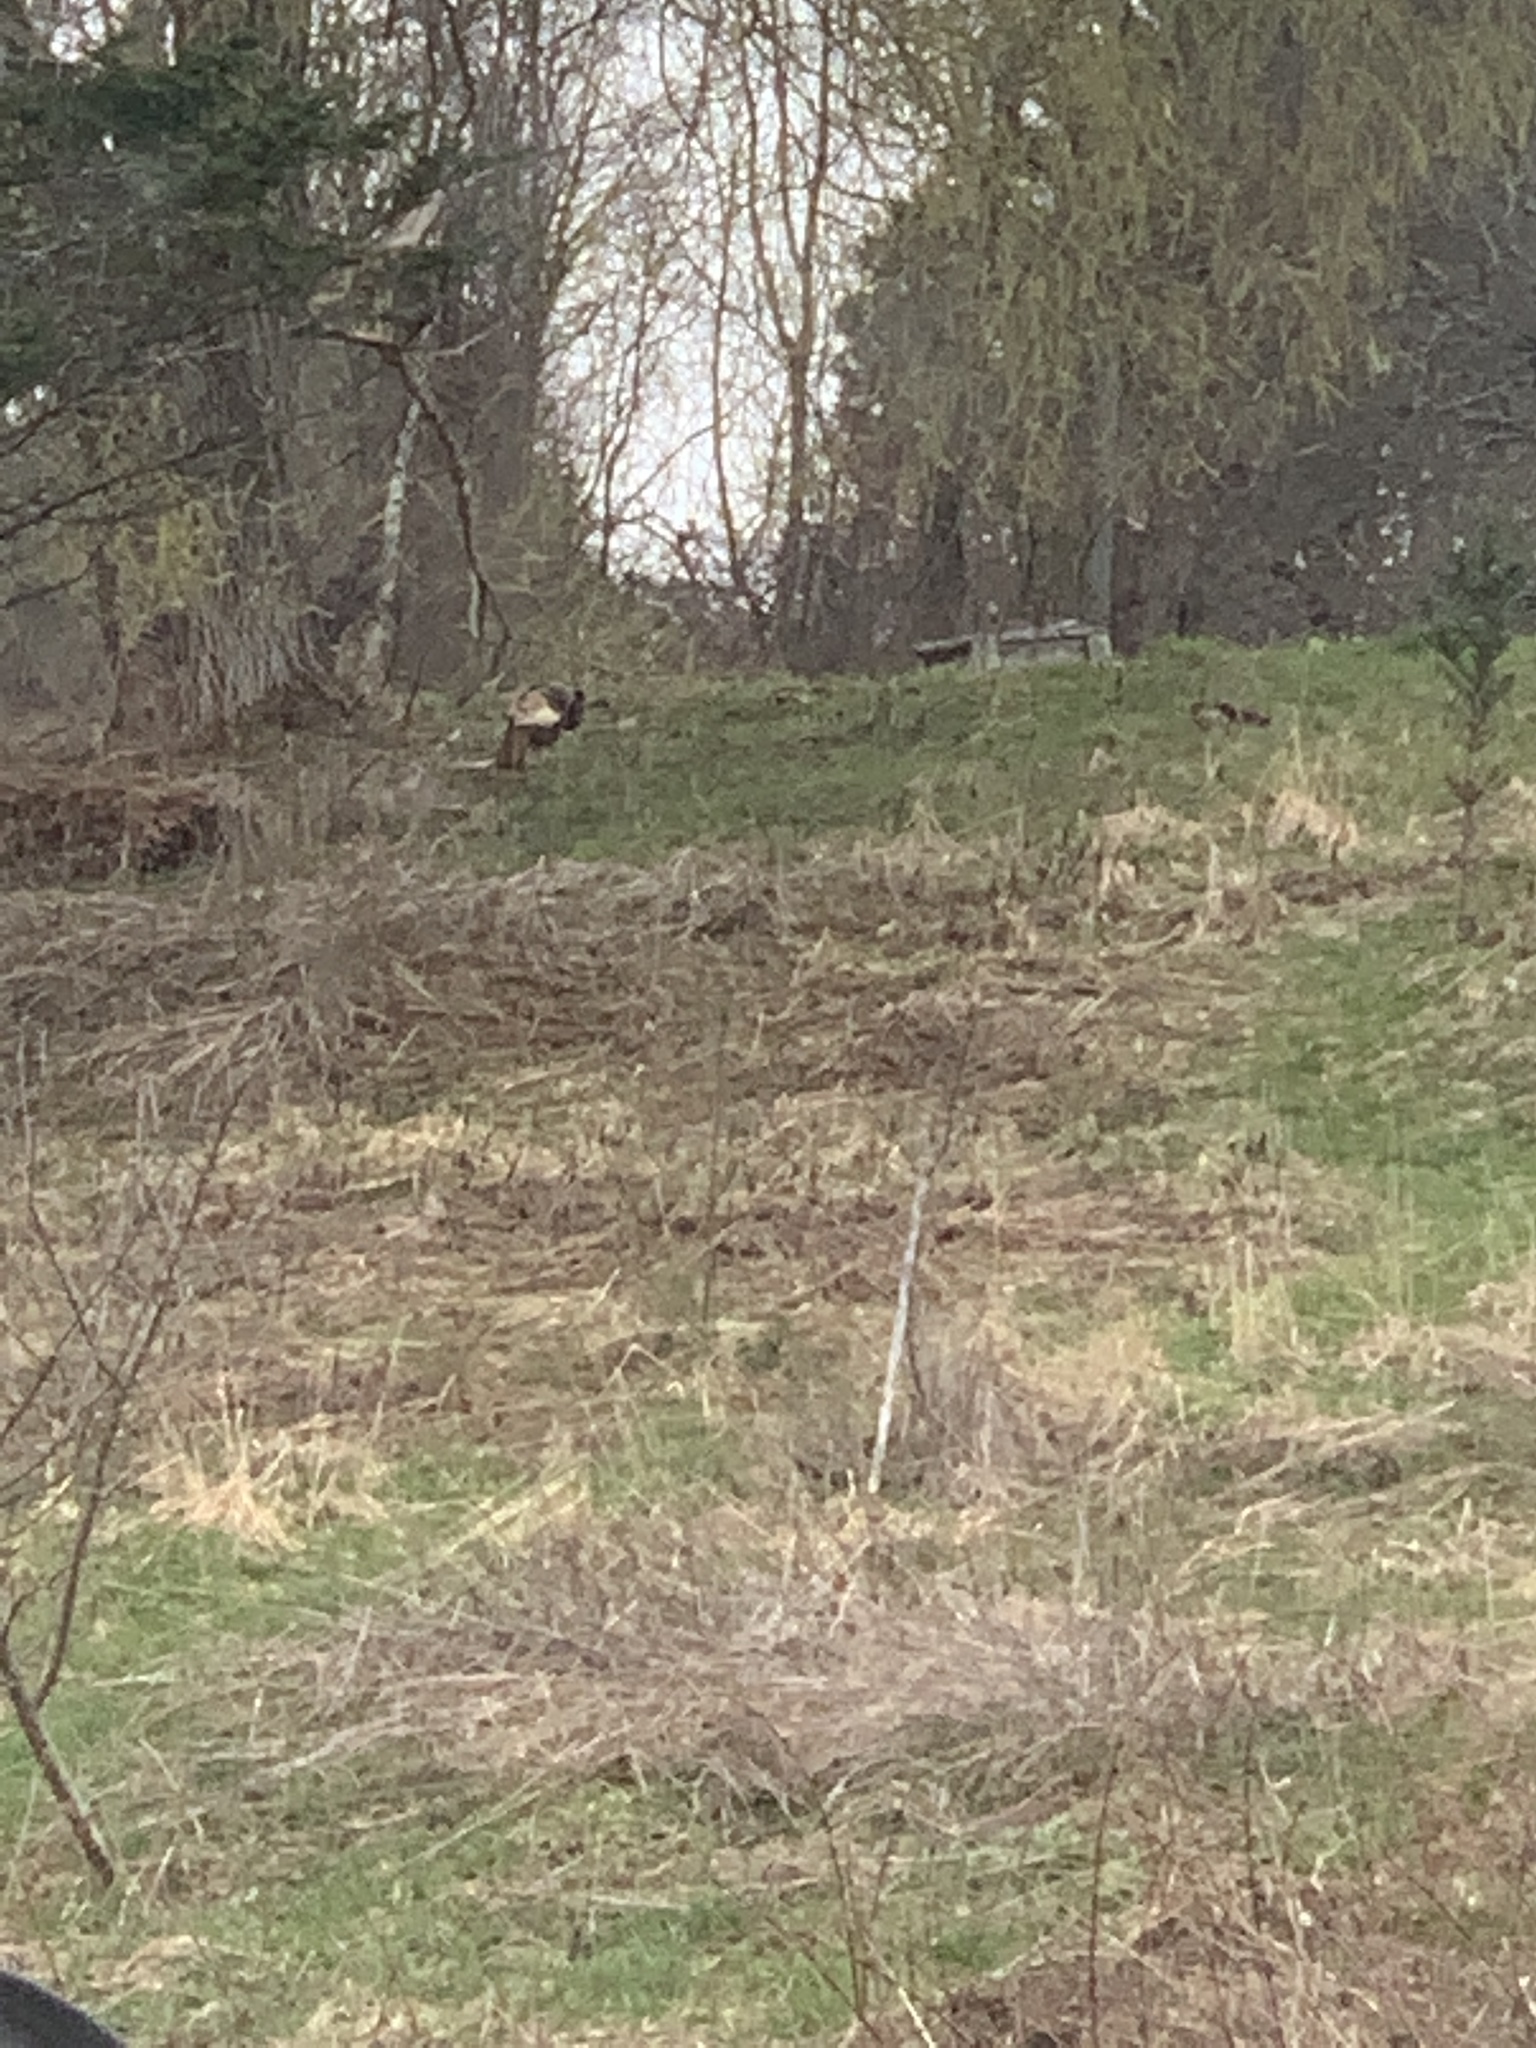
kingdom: Animalia
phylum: Chordata
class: Aves
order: Galliformes
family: Phasianidae
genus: Meleagris
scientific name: Meleagris gallopavo
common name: Wild turkey
